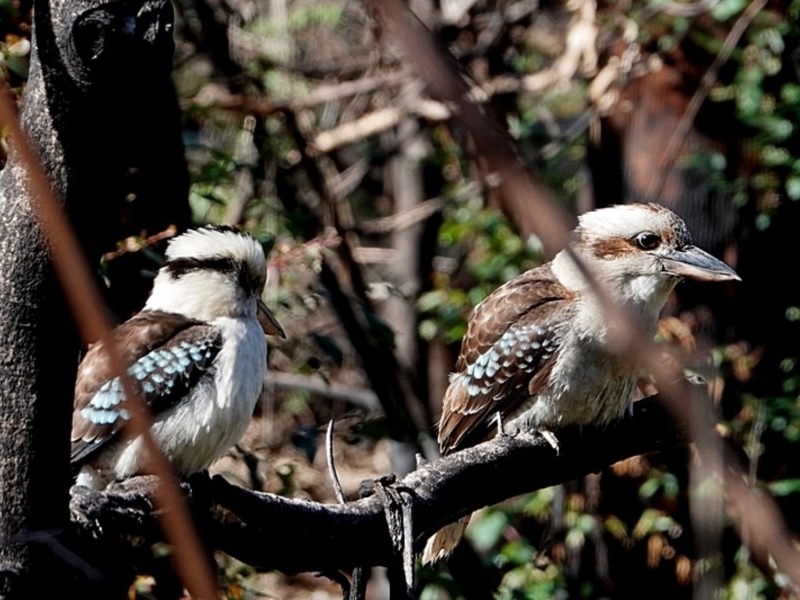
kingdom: Animalia
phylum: Chordata
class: Aves
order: Coraciiformes
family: Alcedinidae
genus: Dacelo
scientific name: Dacelo novaeguineae
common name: Laughing kookaburra
